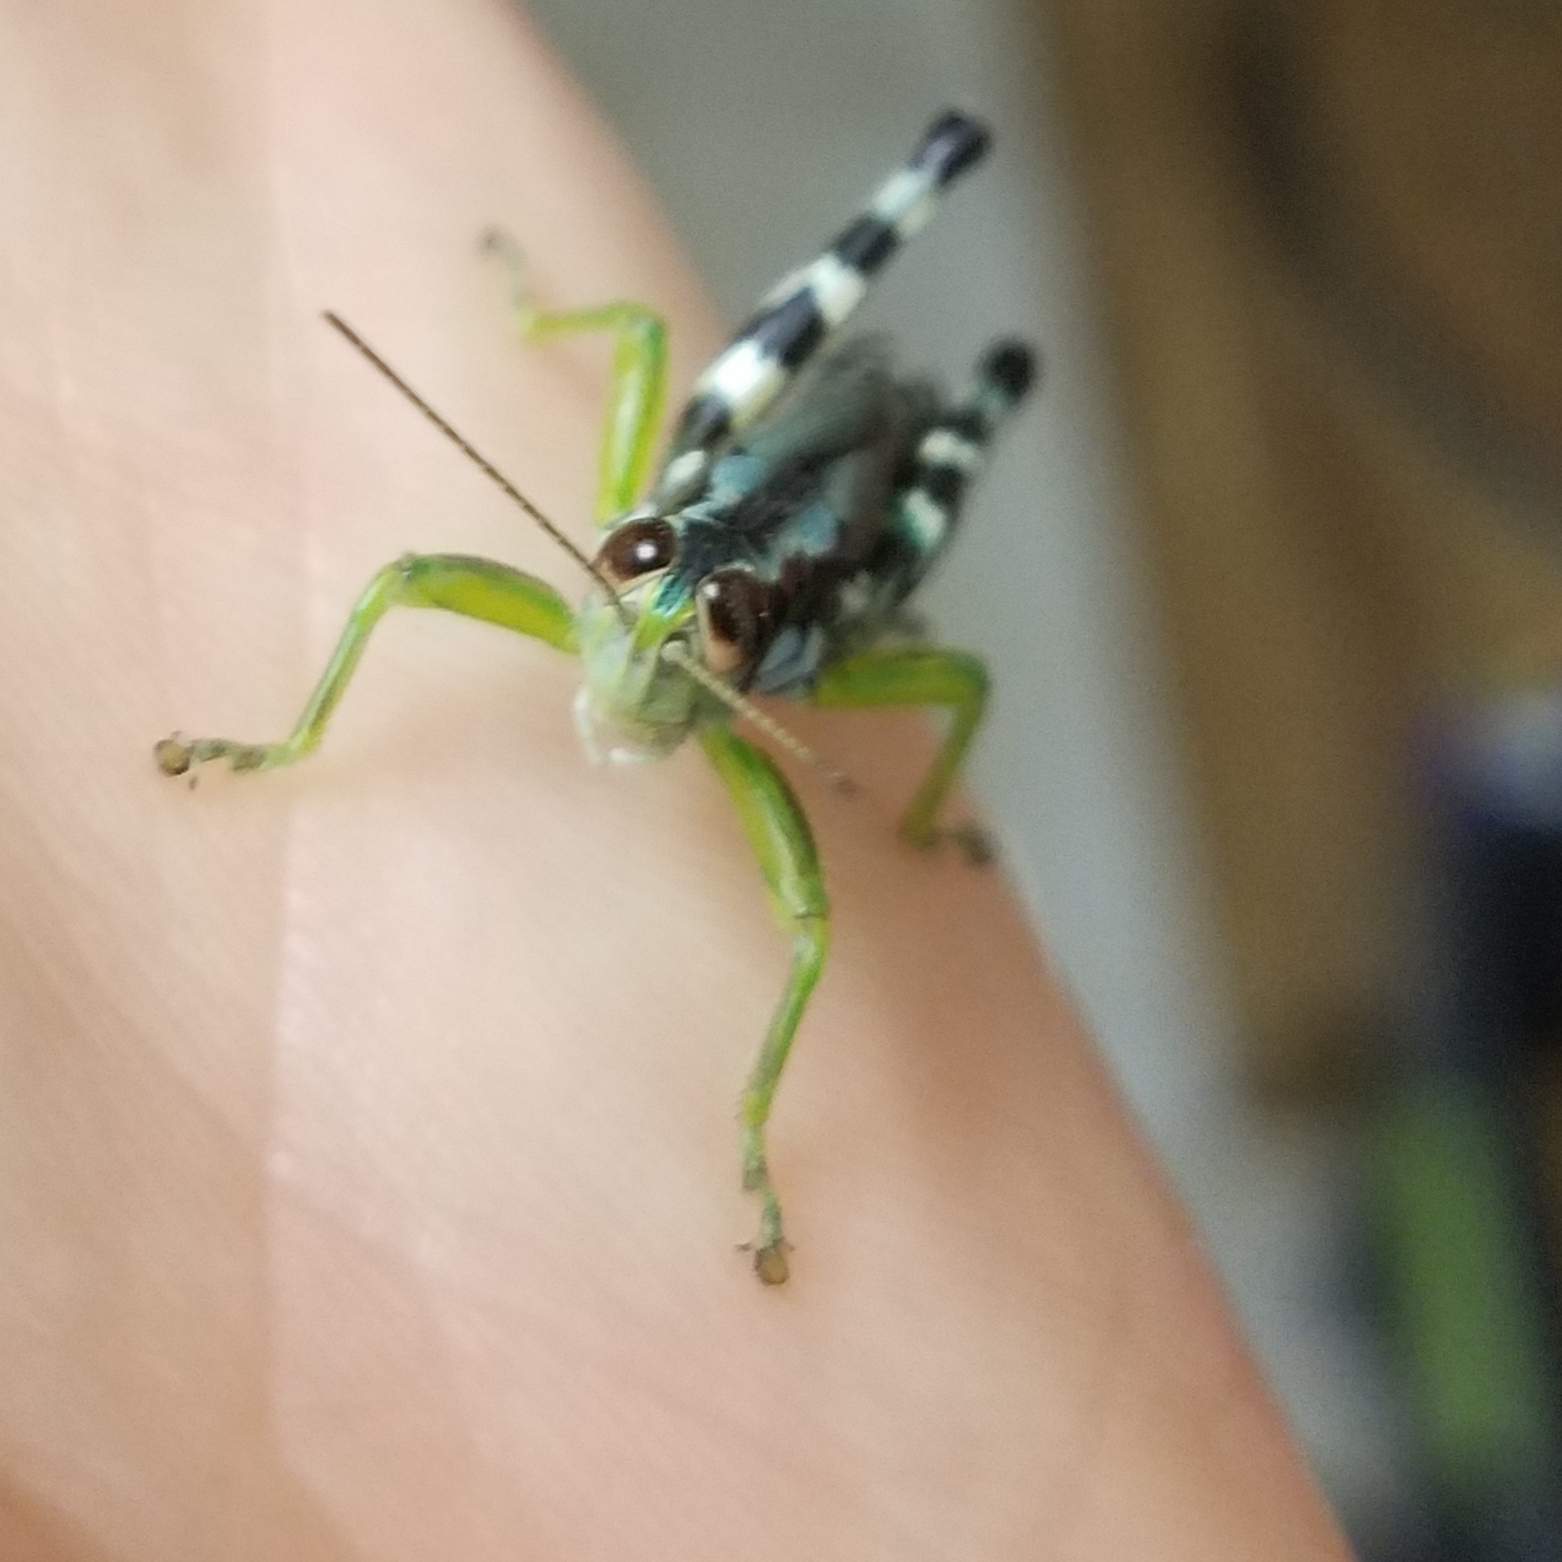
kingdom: Animalia
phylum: Arthropoda
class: Insecta
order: Orthoptera
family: Acrididae
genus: Melanoplus
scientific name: Melanoplus viridipes
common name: Green-legged locust
